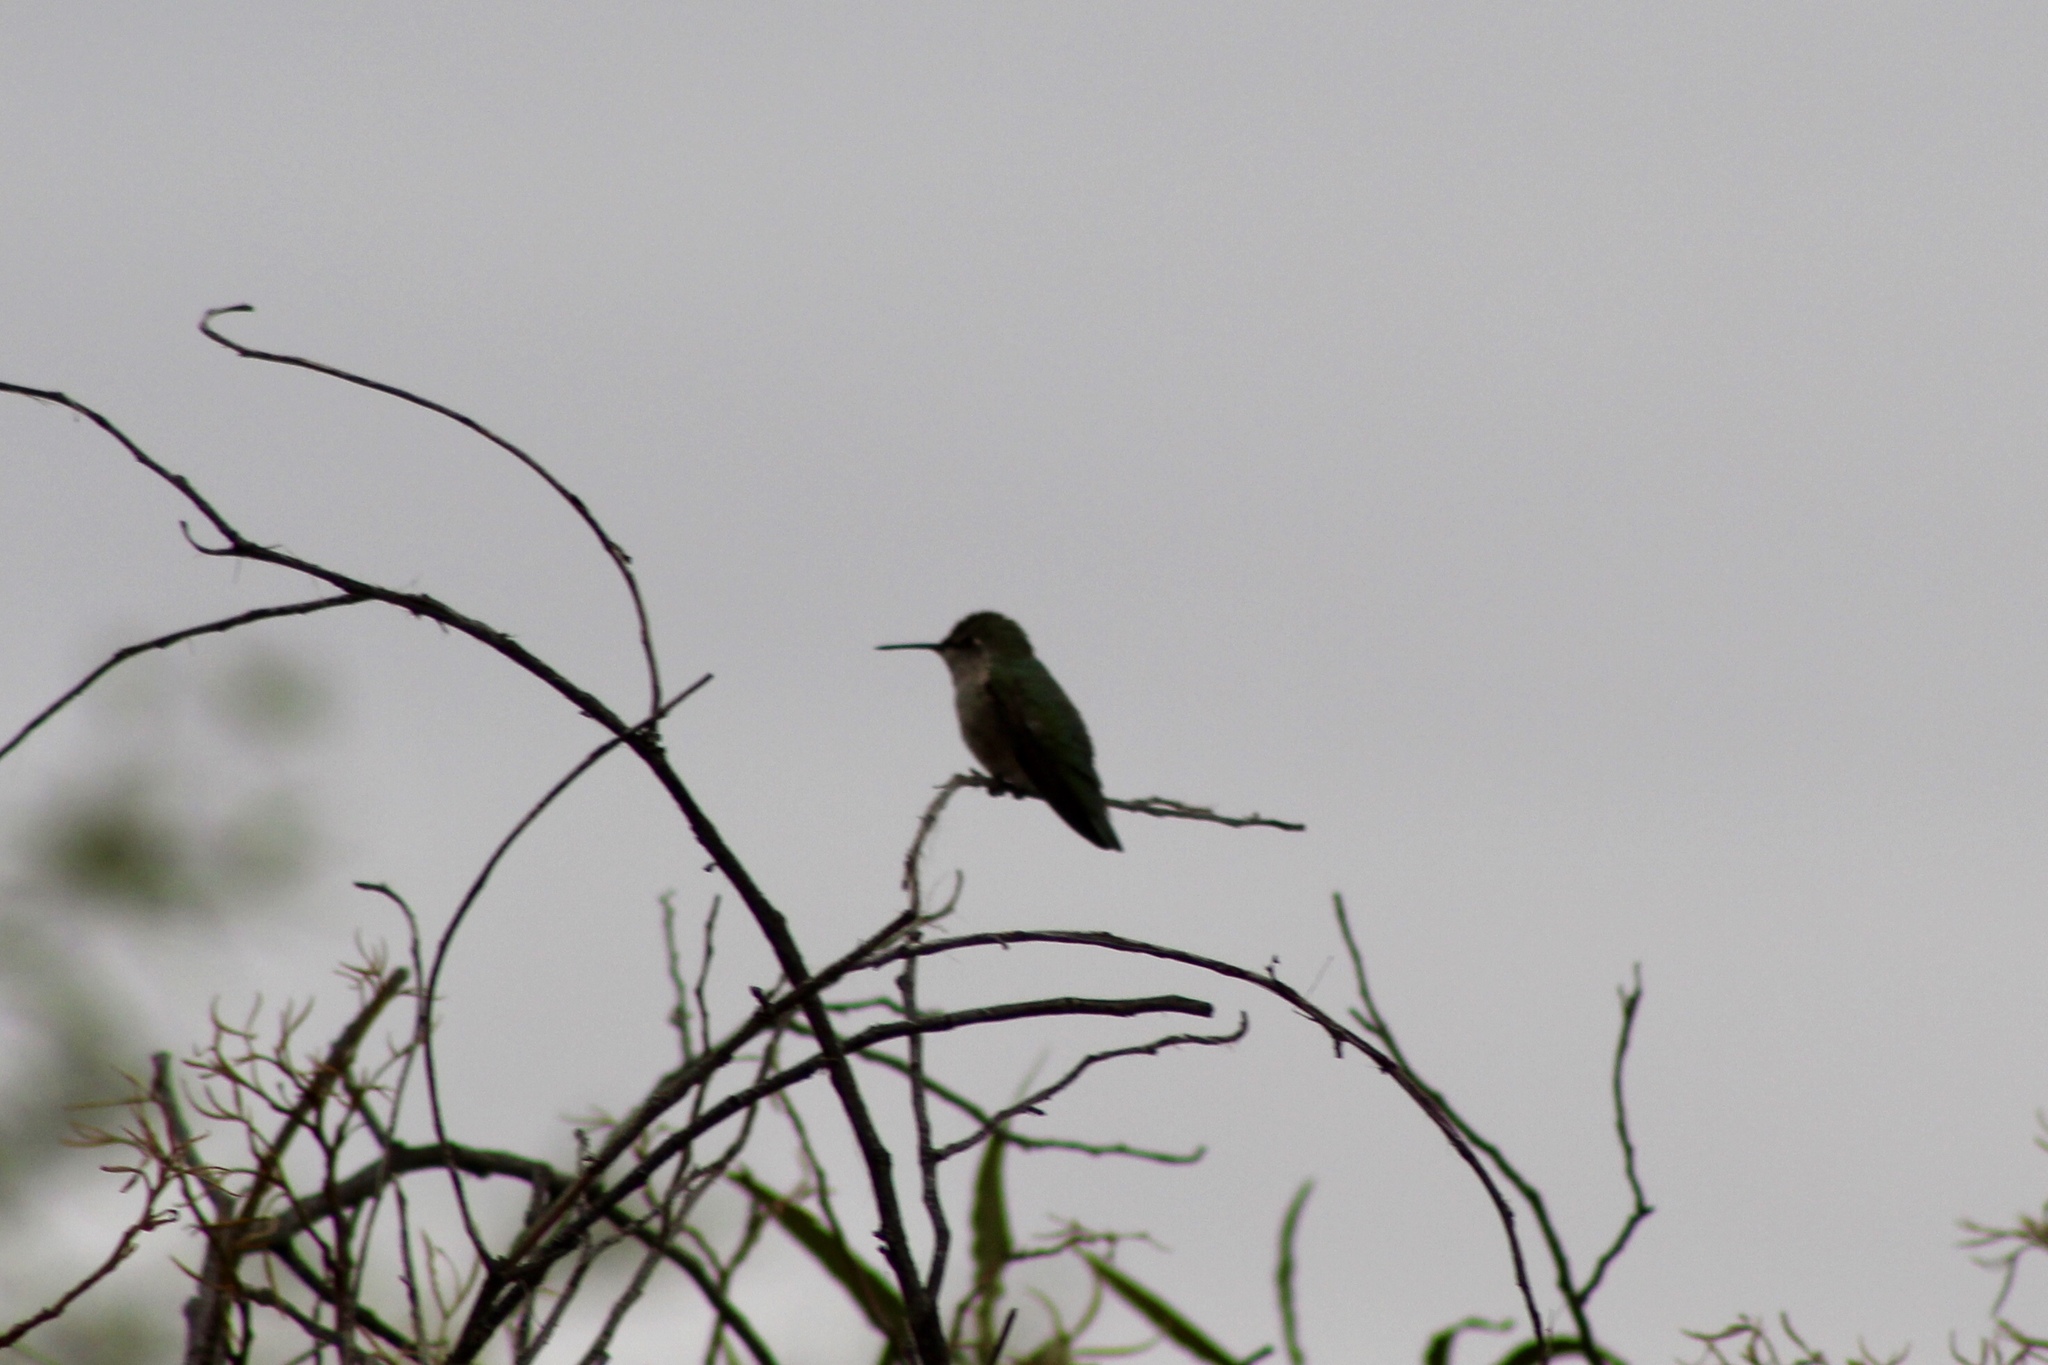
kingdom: Animalia
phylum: Chordata
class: Aves
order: Apodiformes
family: Trochilidae
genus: Calypte
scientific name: Calypte anna
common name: Anna's hummingbird
